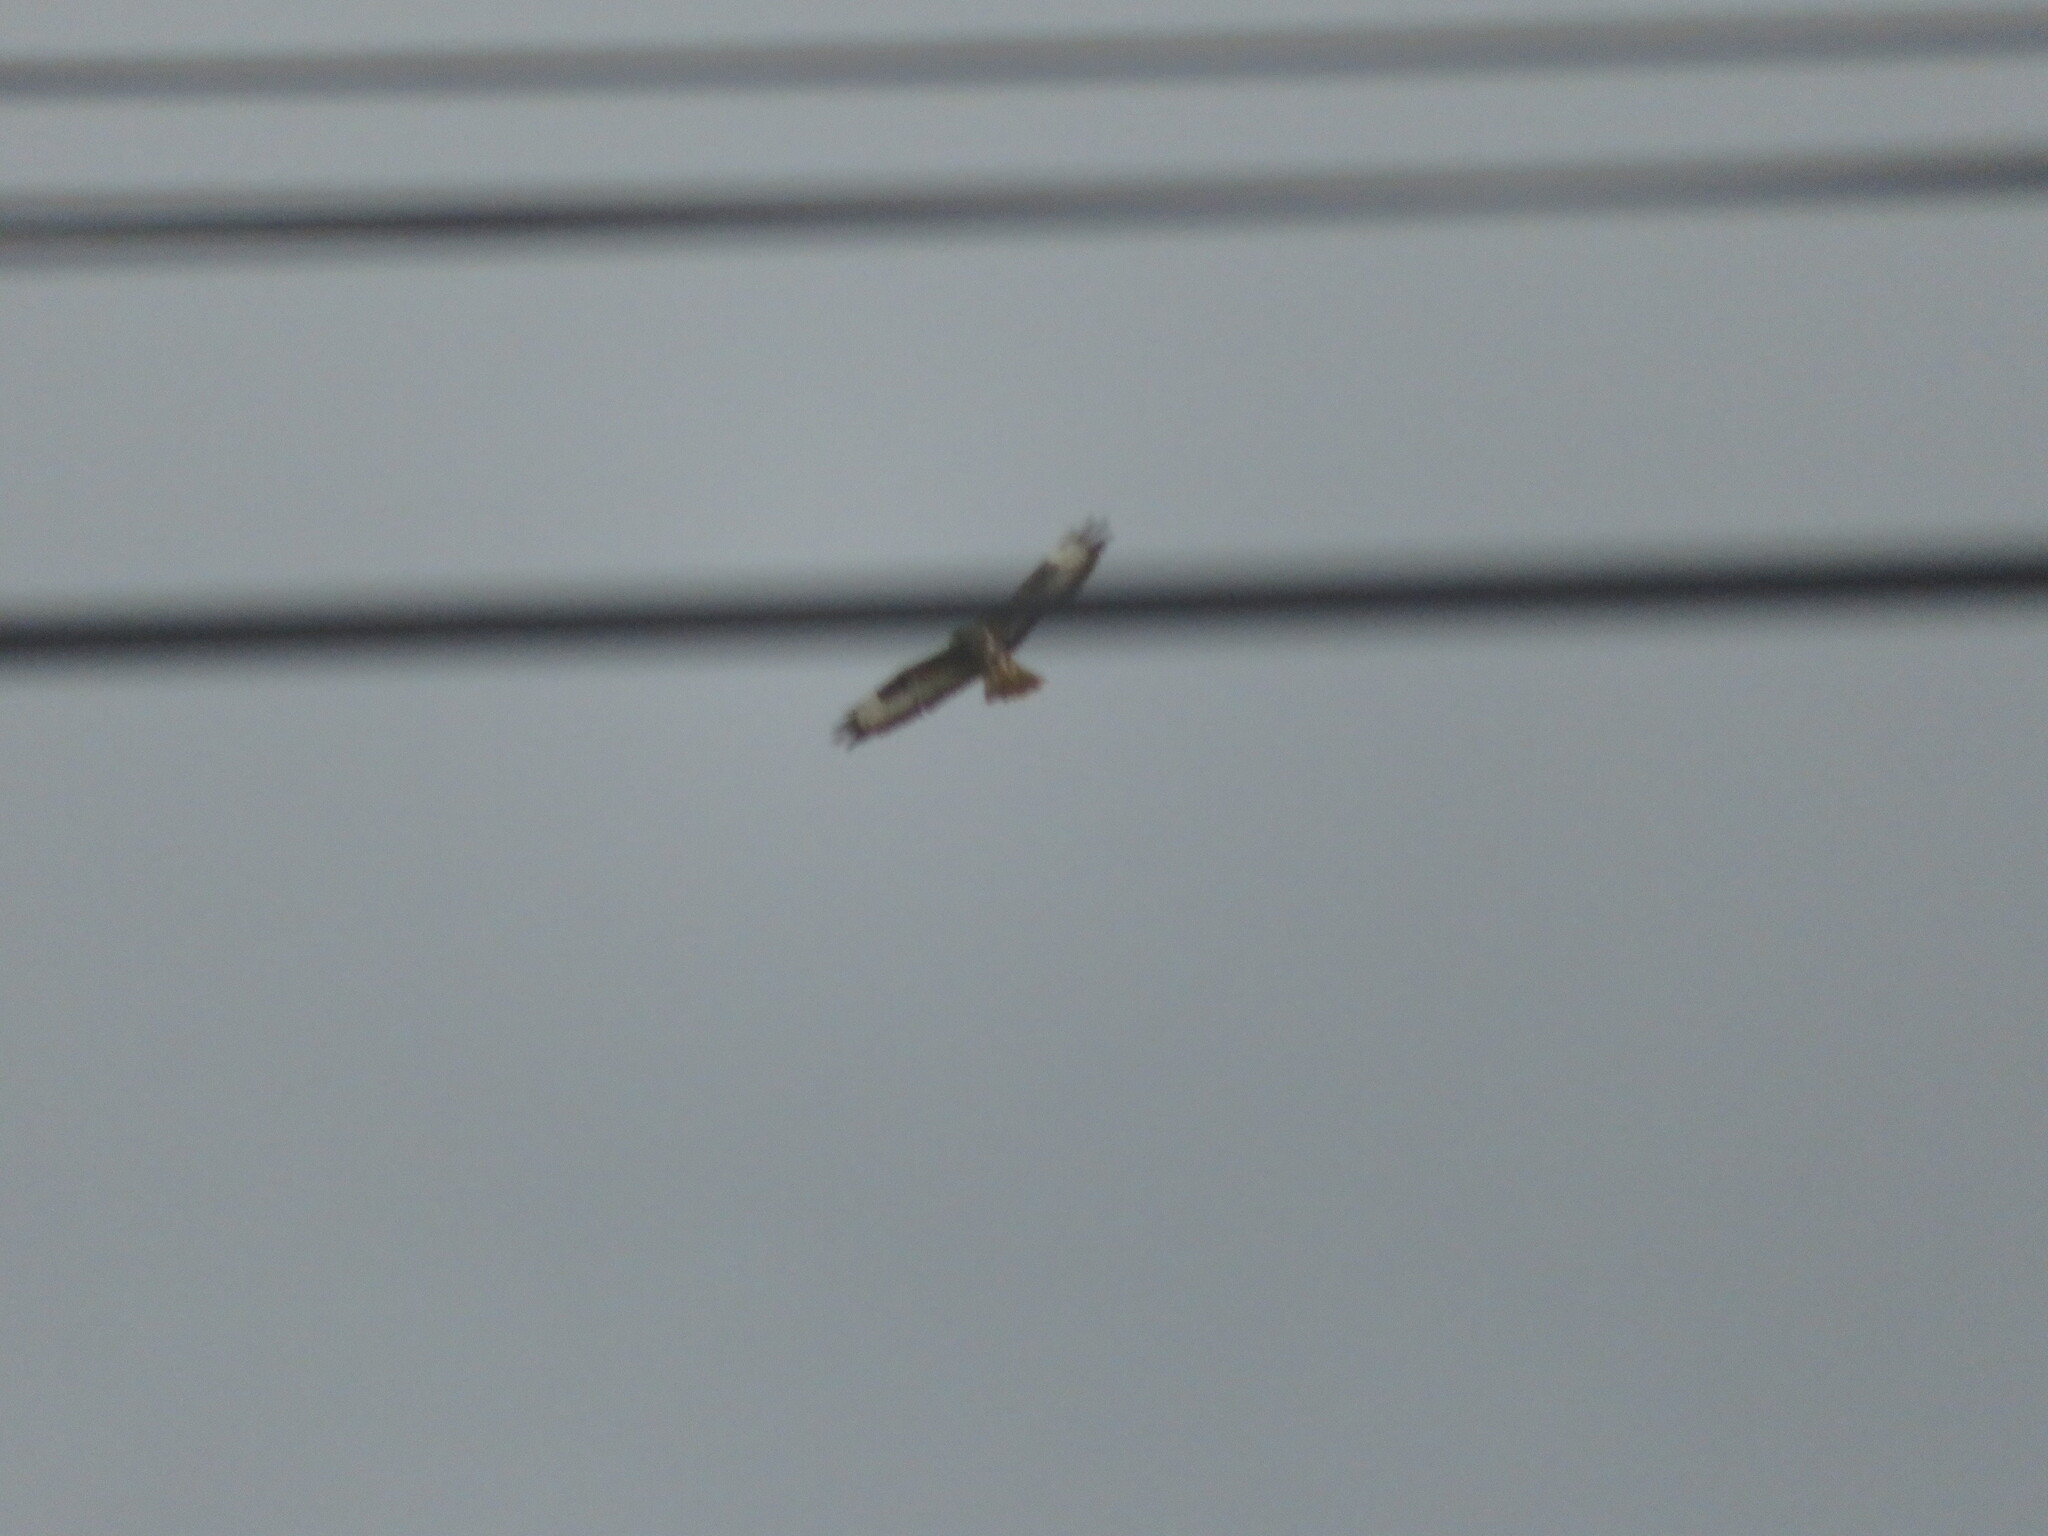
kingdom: Animalia
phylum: Chordata
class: Aves
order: Accipitriformes
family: Accipitridae
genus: Buteo
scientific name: Buteo buteo
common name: Common buzzard
